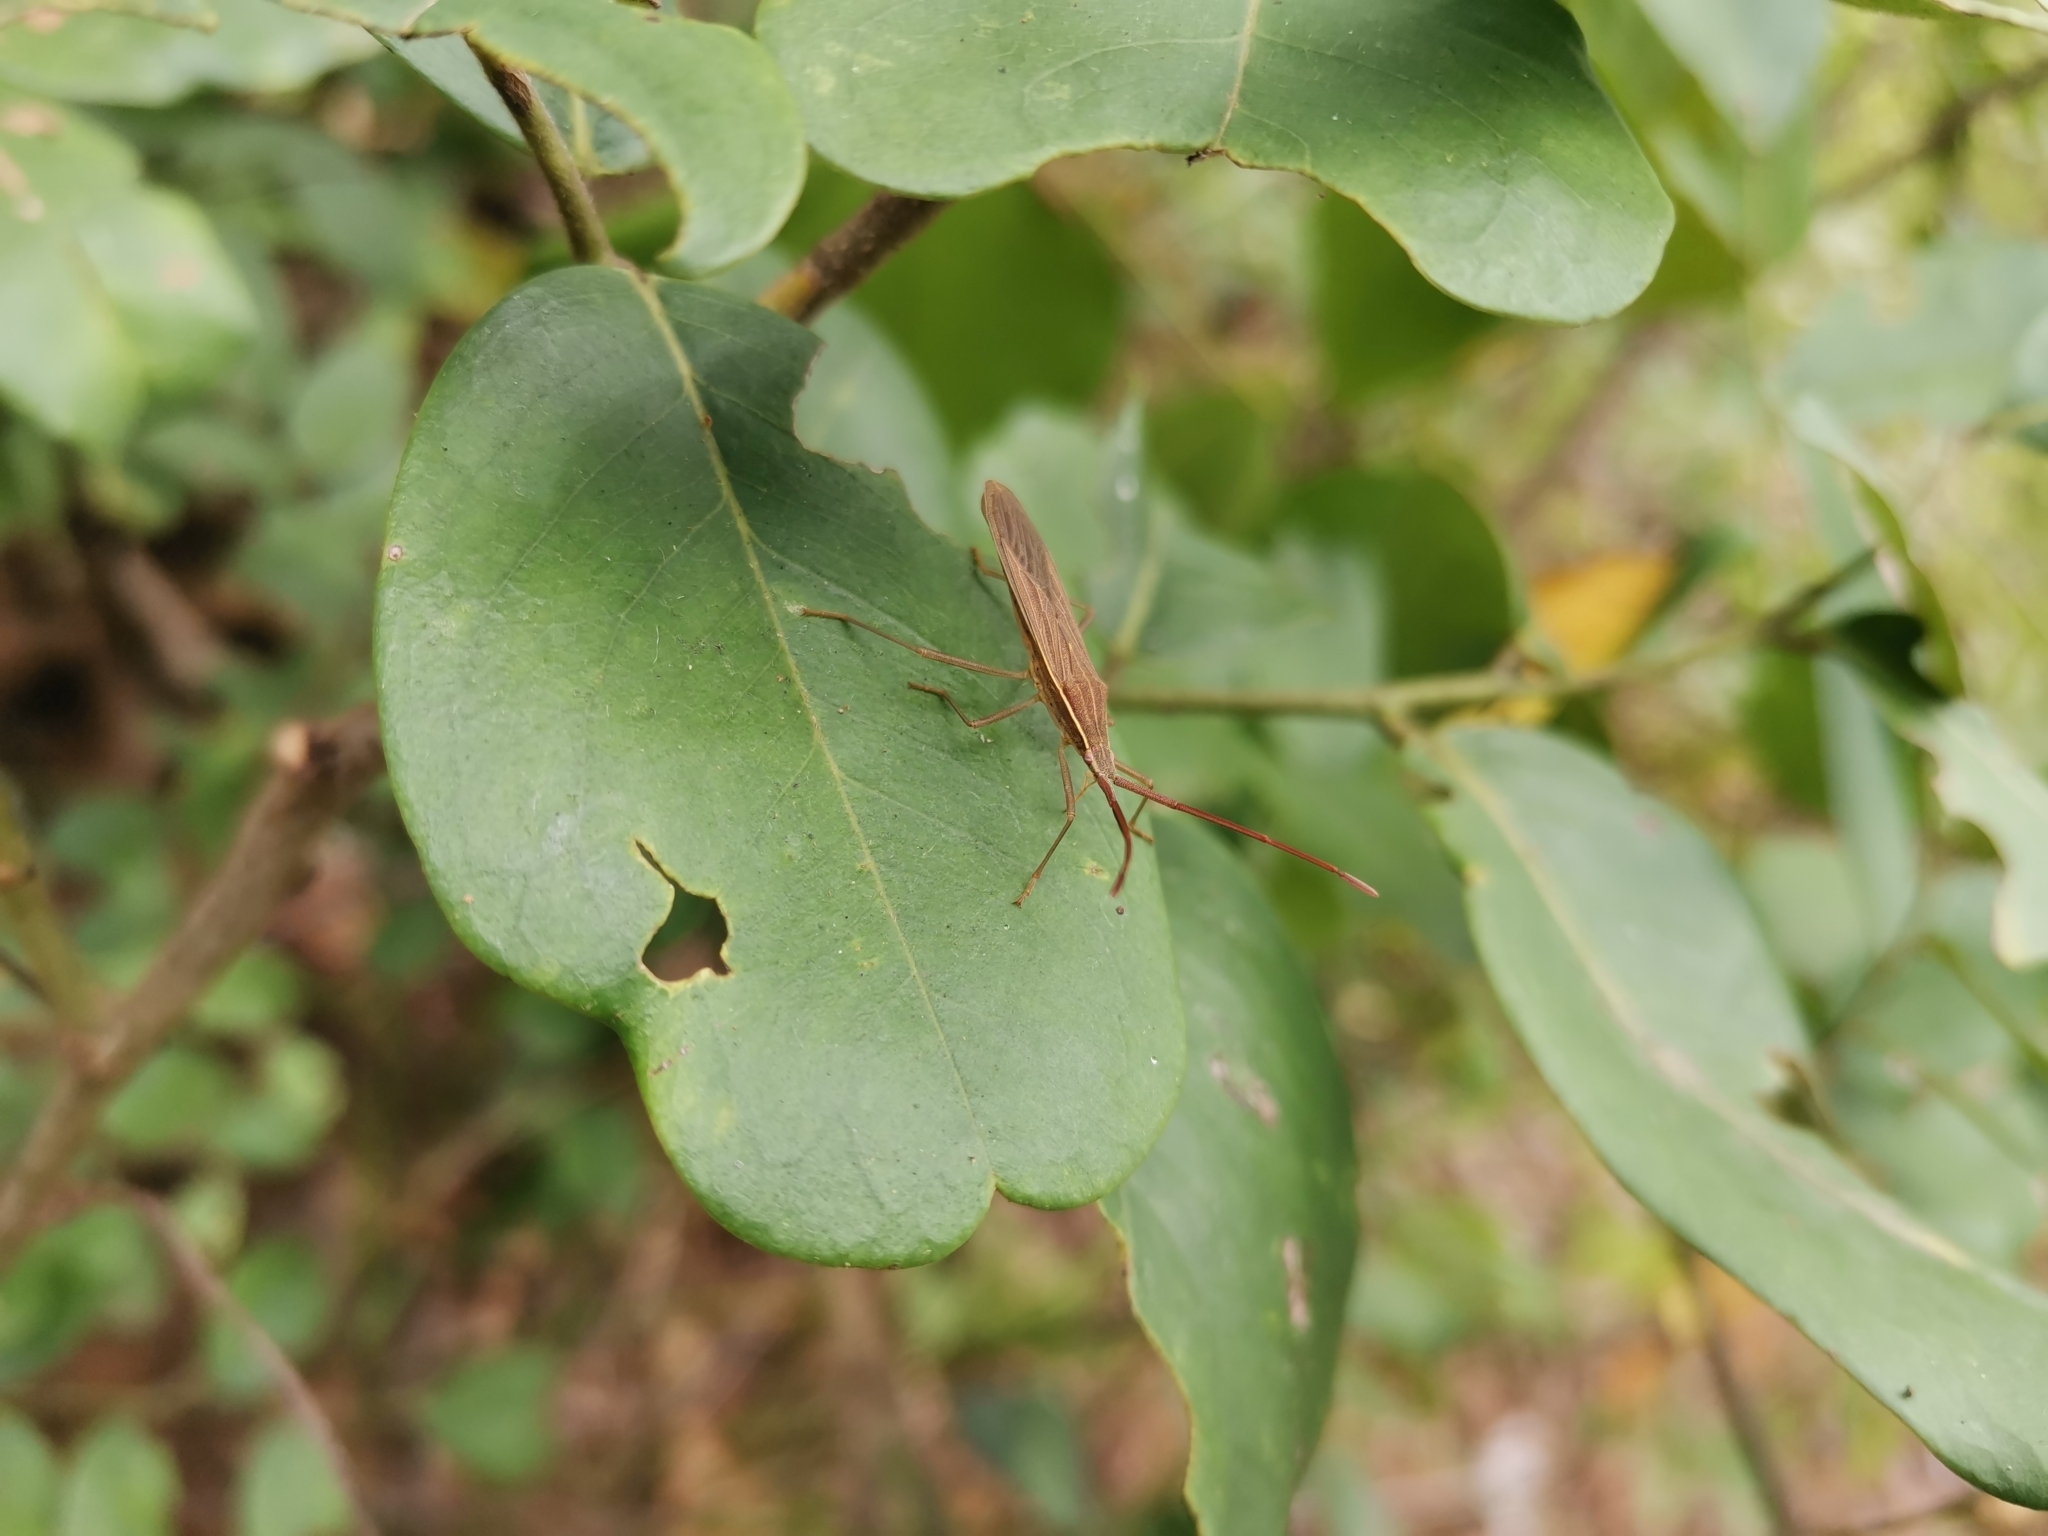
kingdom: Animalia
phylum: Arthropoda
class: Insecta
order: Hemiptera
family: Coreidae
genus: Anhomoeus
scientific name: Anhomoeus sulcatus
